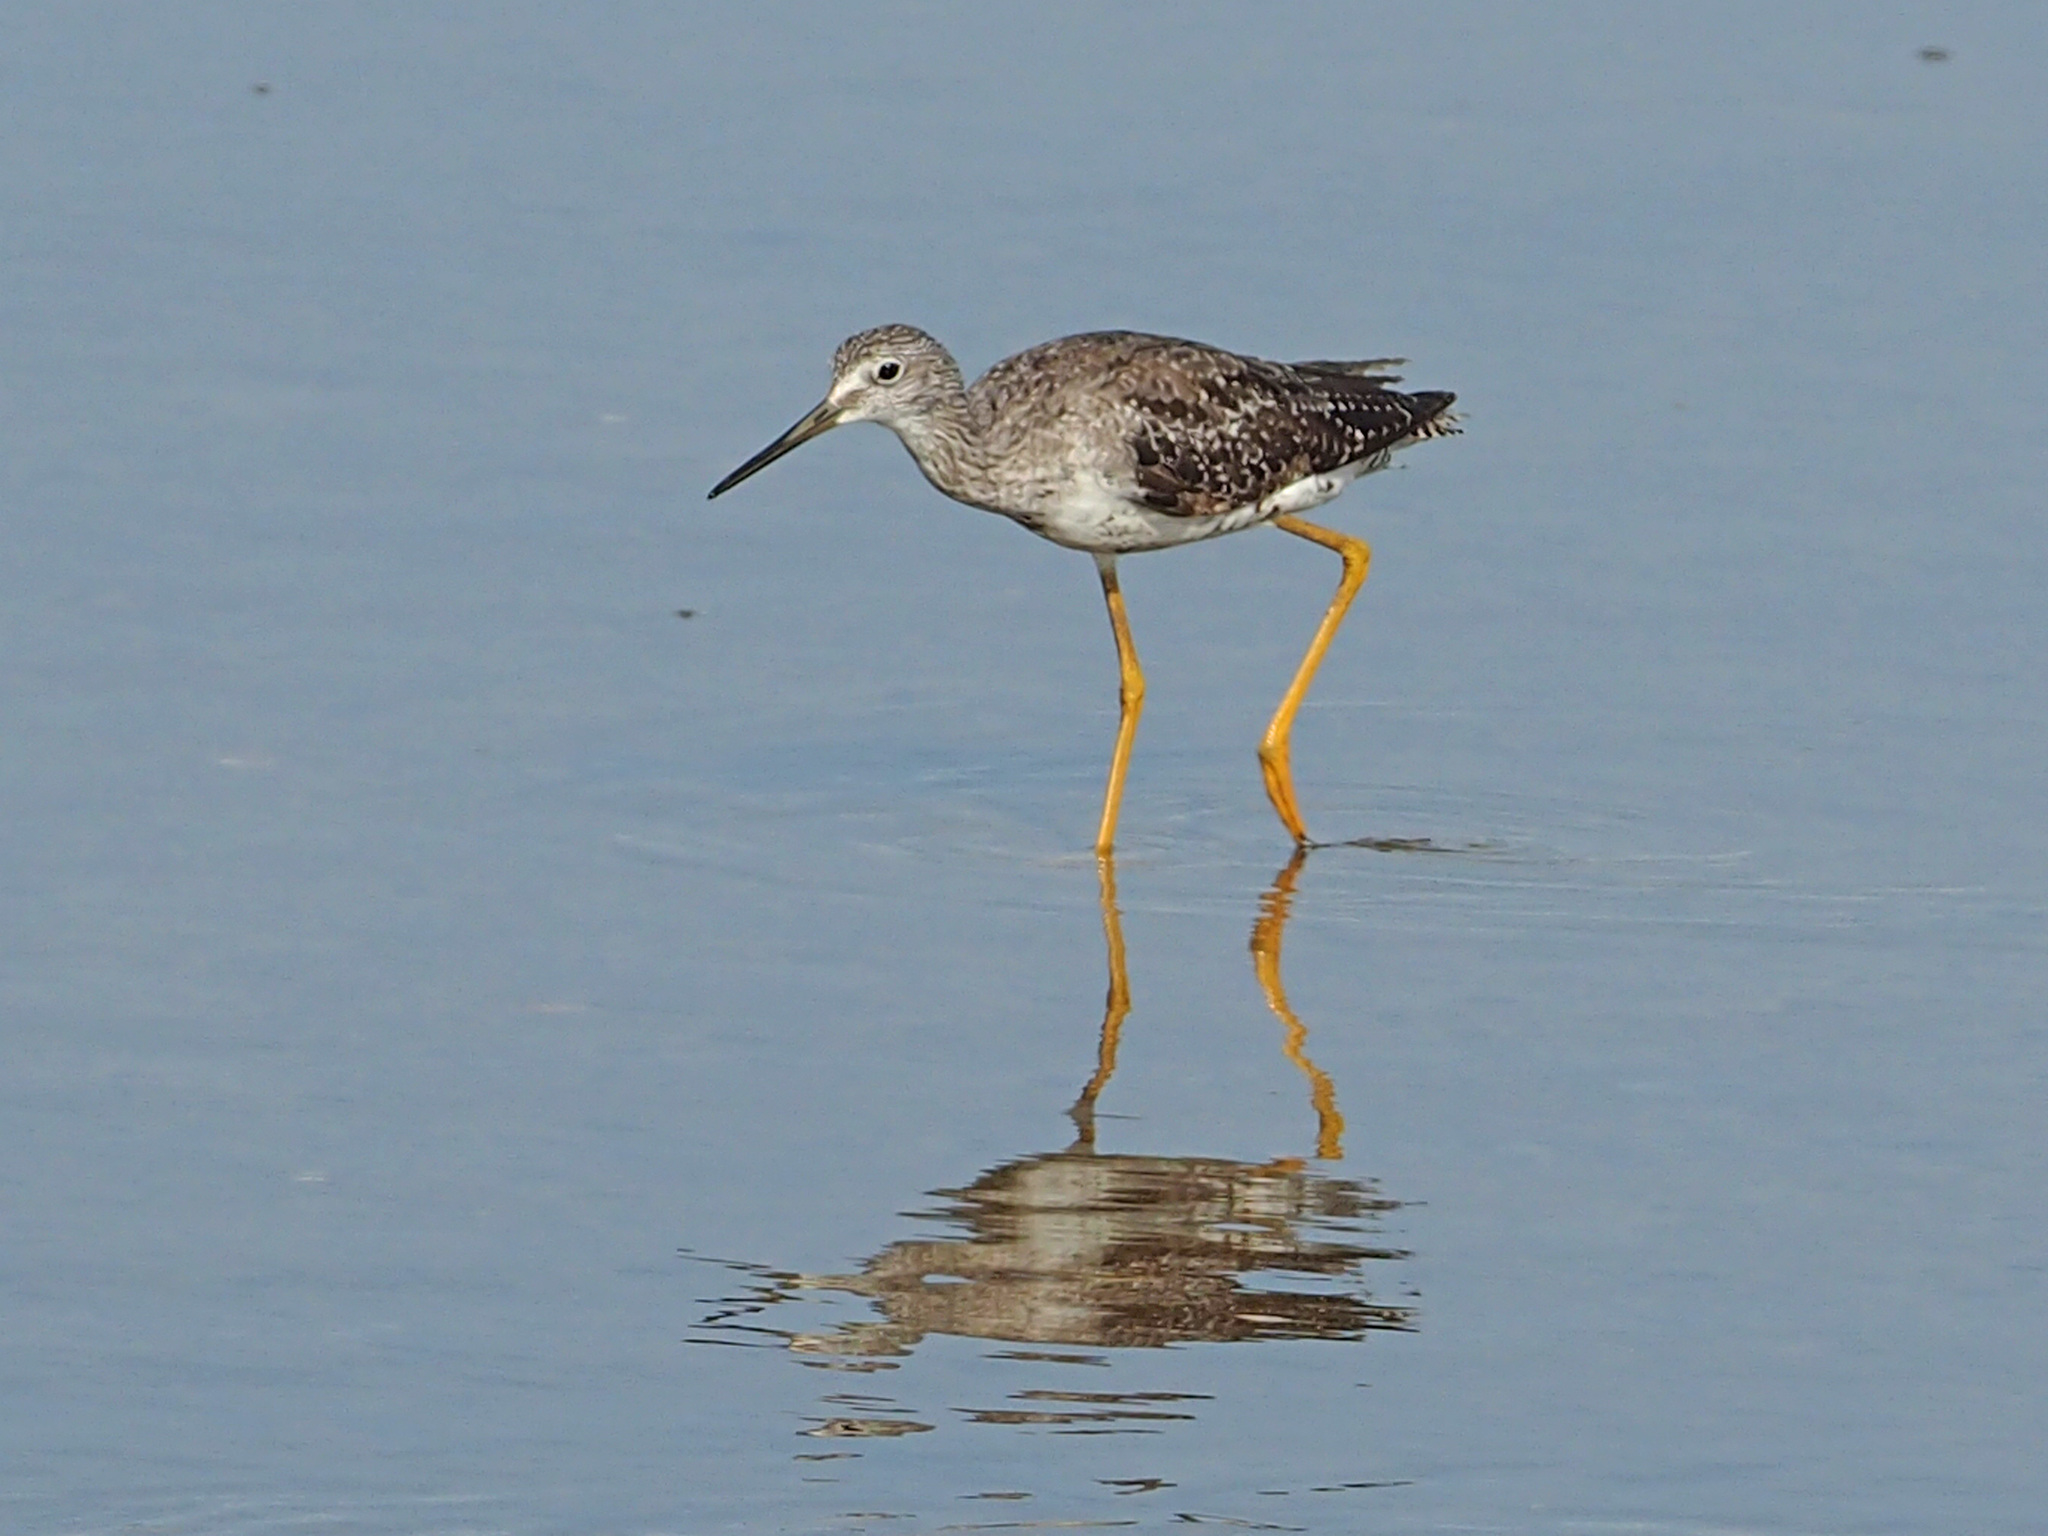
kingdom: Animalia
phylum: Chordata
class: Aves
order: Charadriiformes
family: Scolopacidae
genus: Tringa
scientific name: Tringa melanoleuca
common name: Greater yellowlegs
